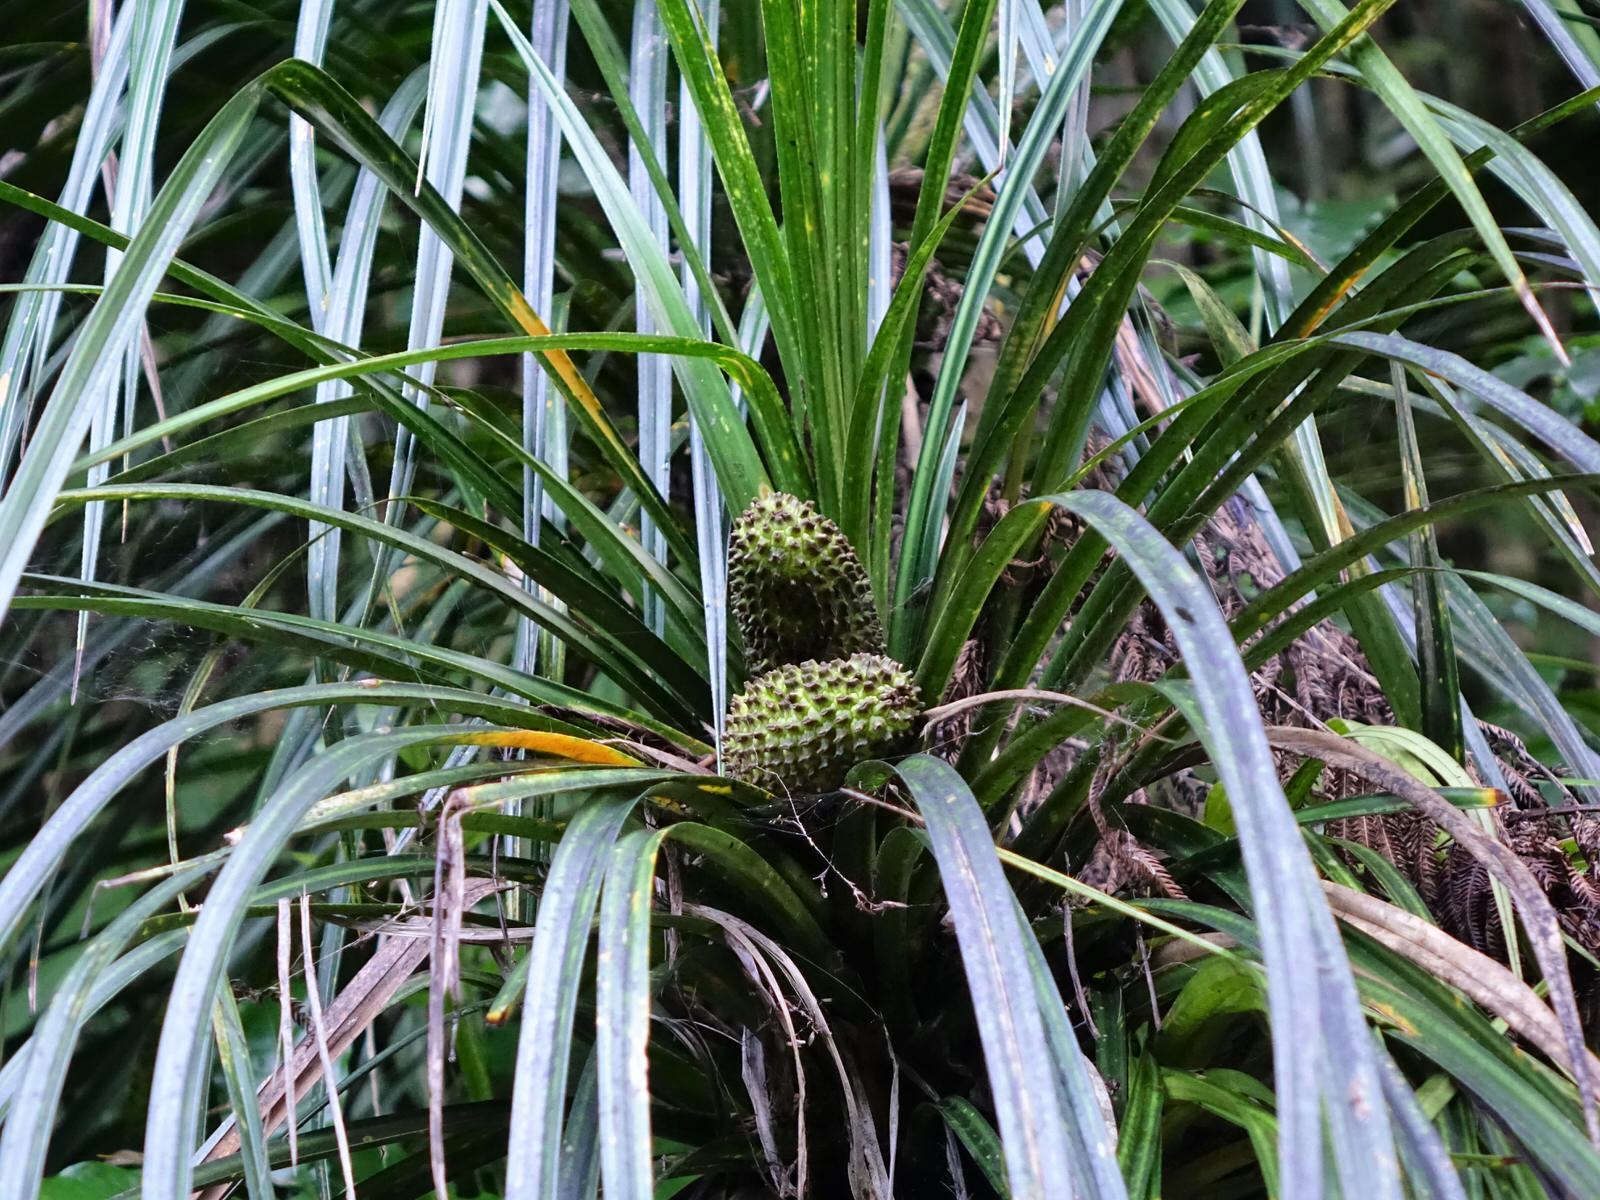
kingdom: Plantae
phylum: Tracheophyta
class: Liliopsida
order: Pandanales
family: Pandanaceae
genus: Freycinetia
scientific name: Freycinetia banksii
